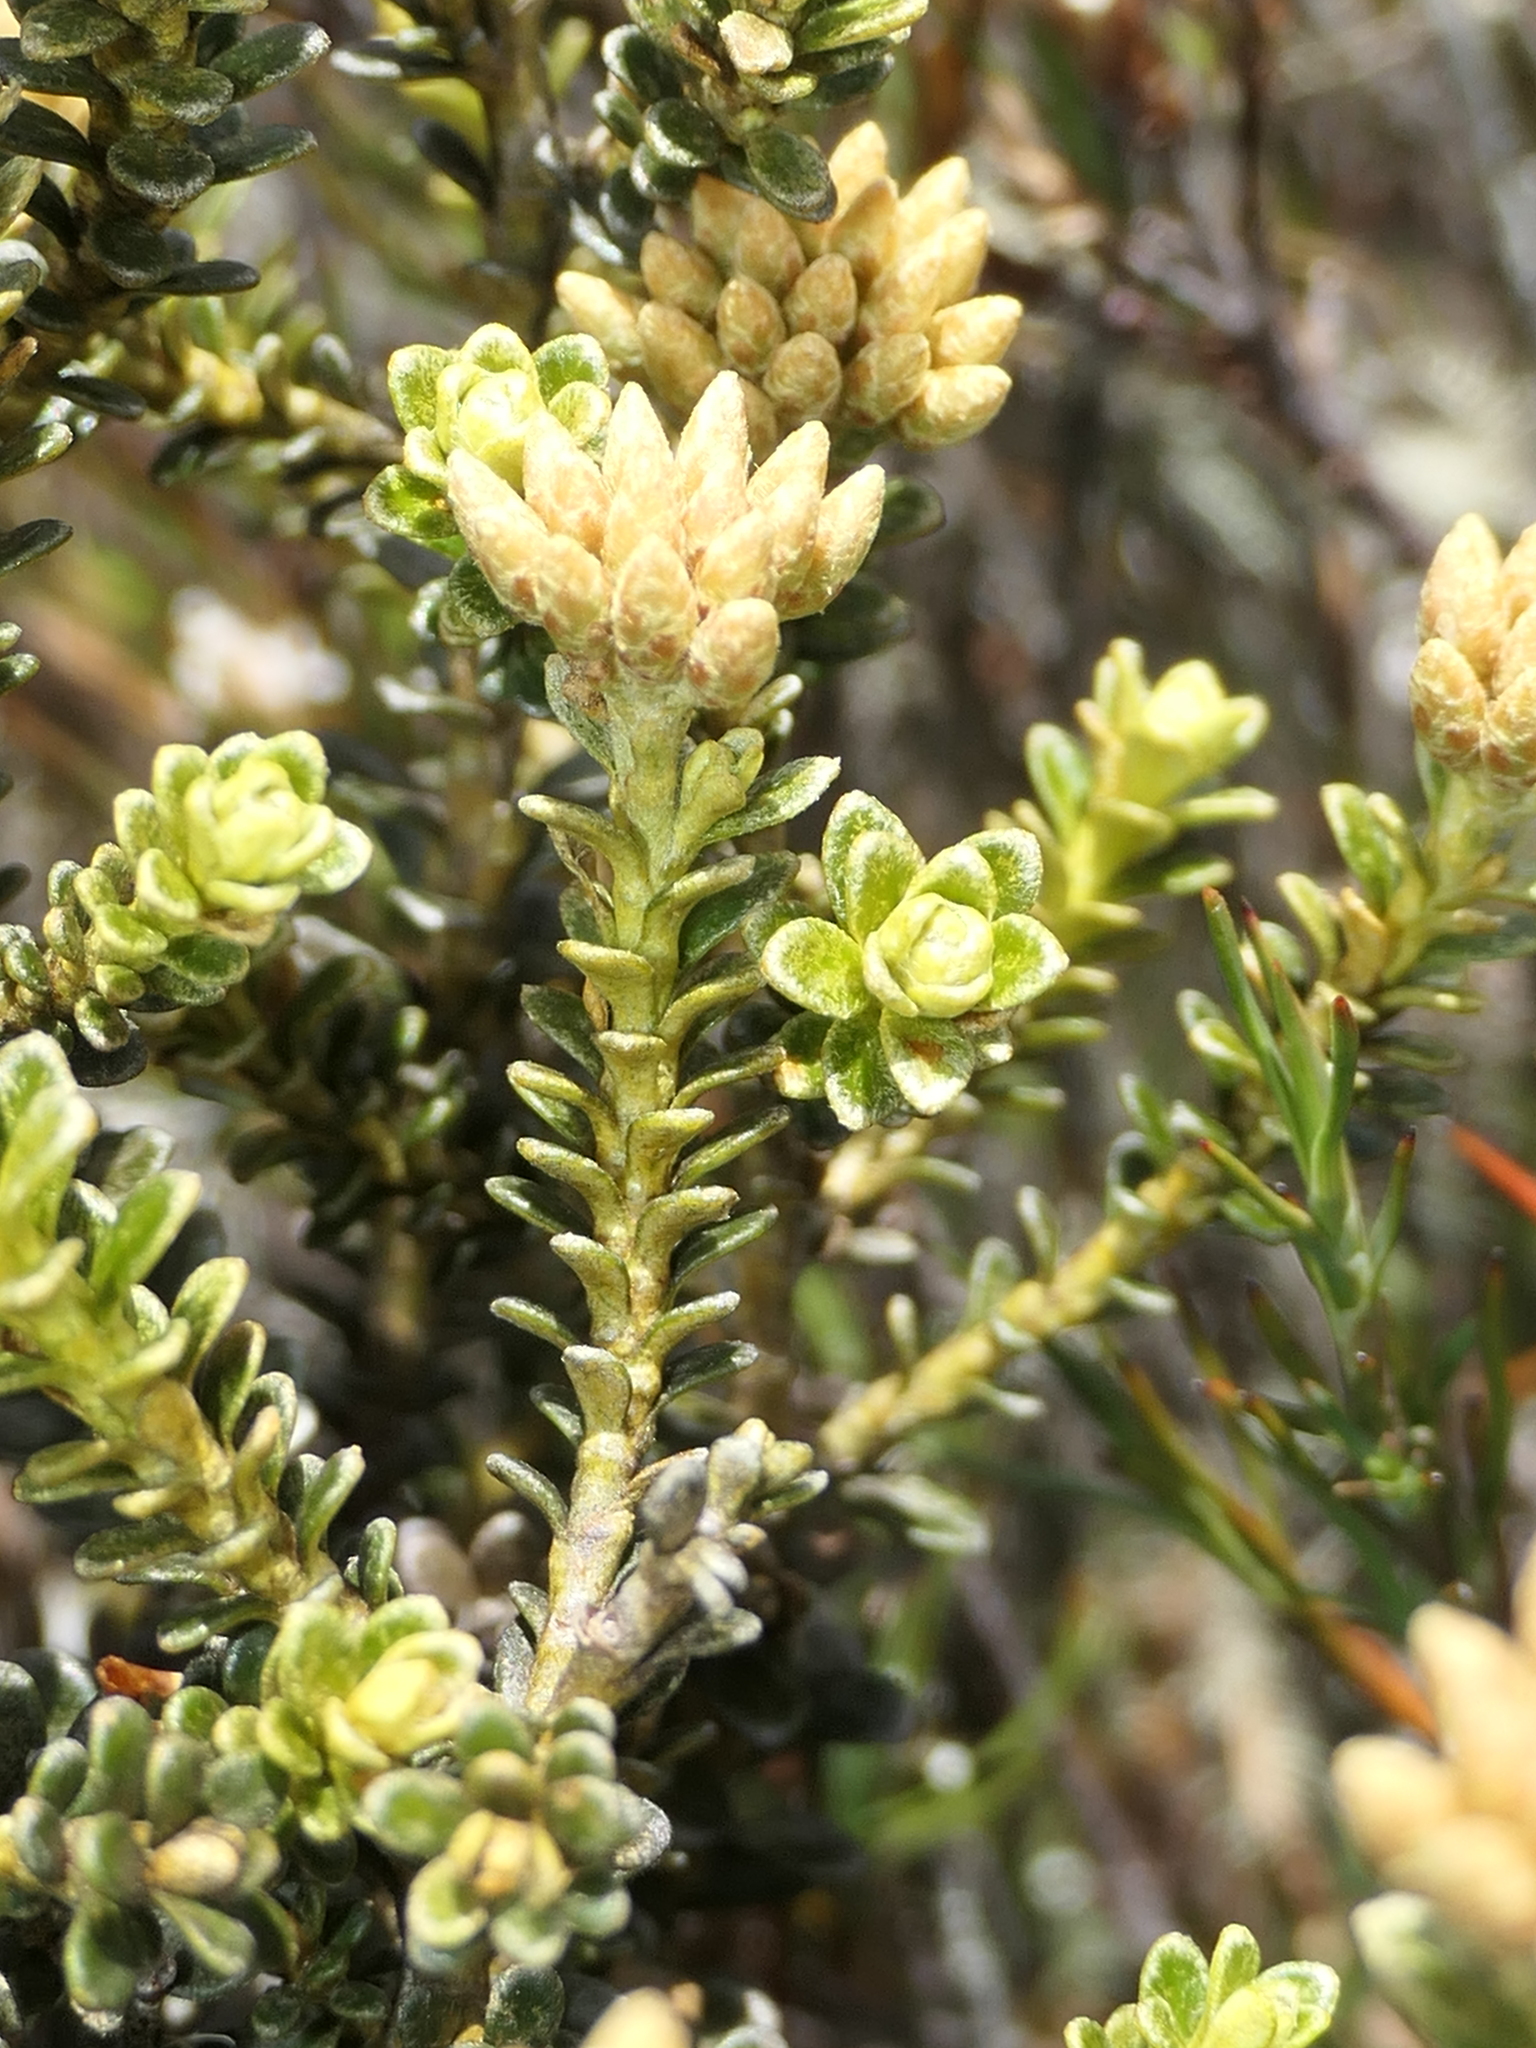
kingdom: Plantae
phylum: Tracheophyta
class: Magnoliopsida
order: Asterales
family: Asteraceae
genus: Ozothamnus
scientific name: Ozothamnus leptophyllus
